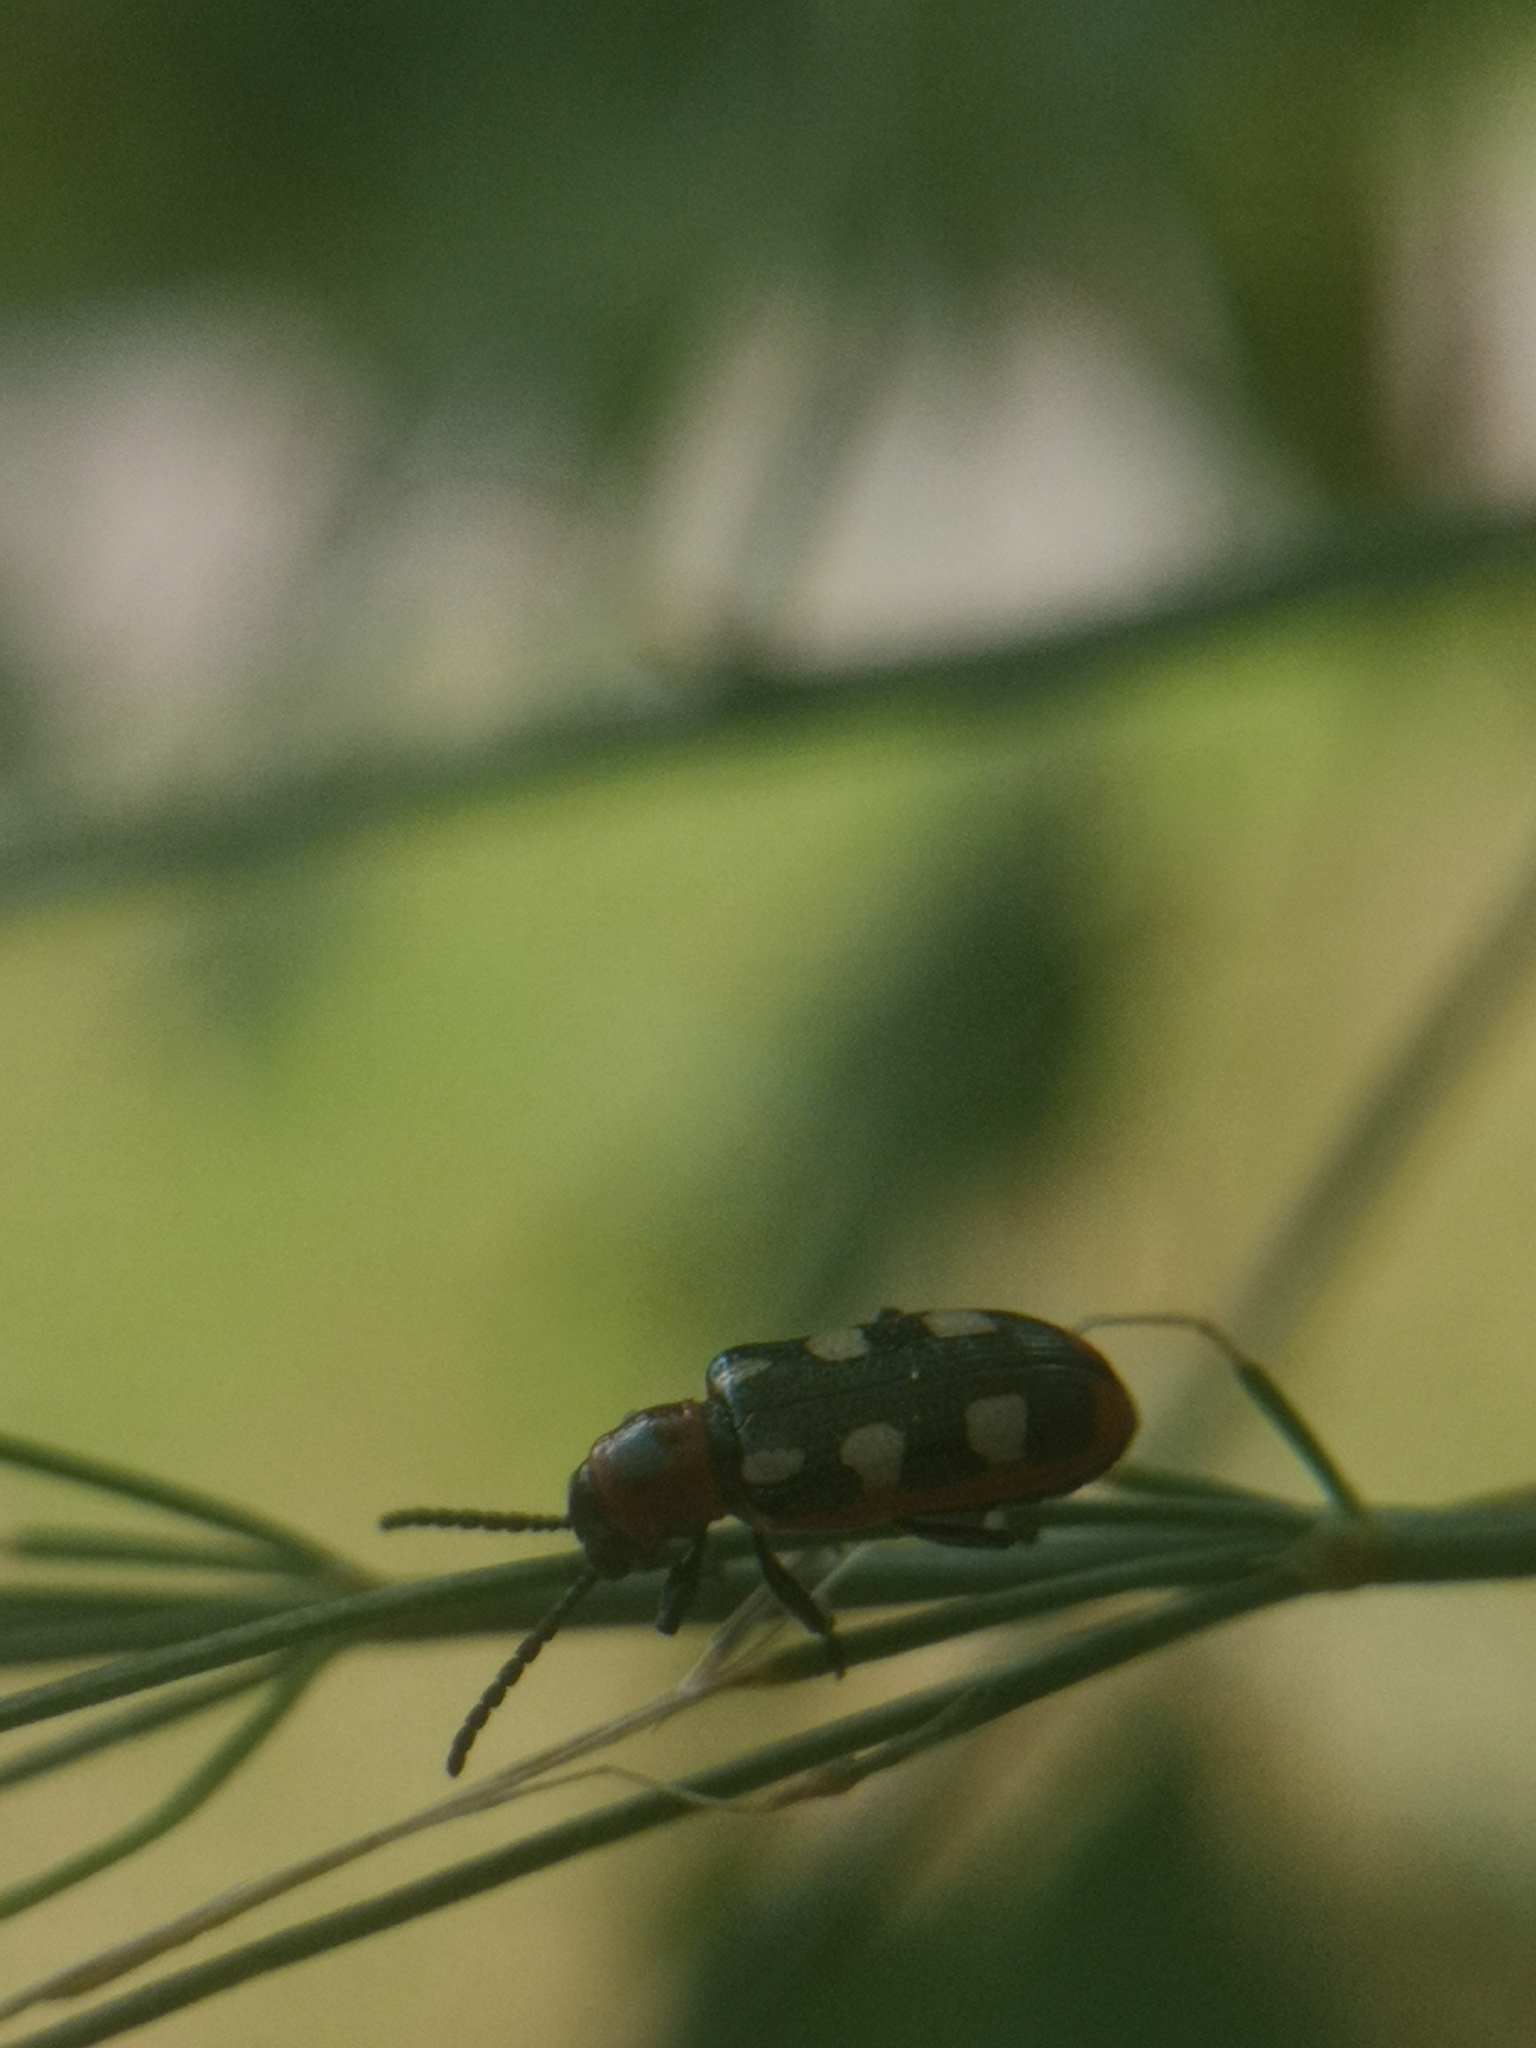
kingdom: Animalia
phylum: Arthropoda
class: Insecta
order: Coleoptera
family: Chrysomelidae
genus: Crioceris
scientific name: Crioceris asparagi
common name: Asparagus beetle
